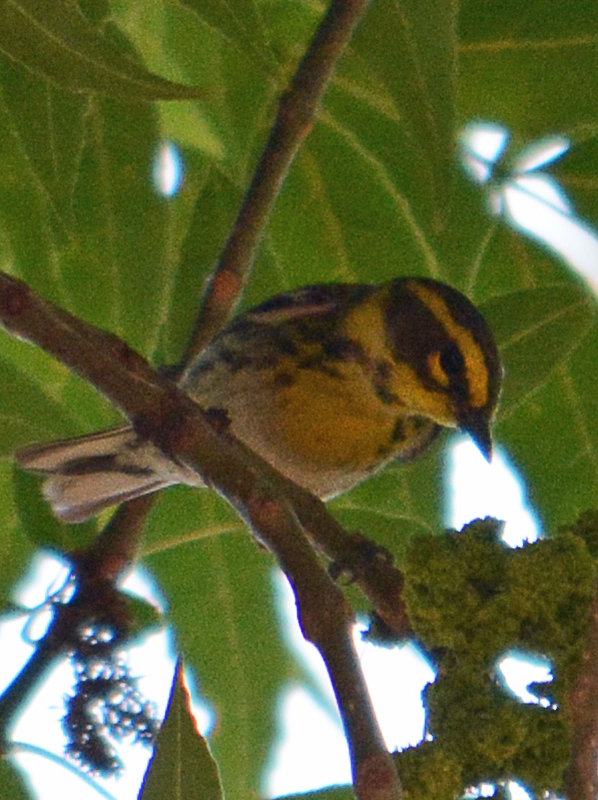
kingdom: Animalia
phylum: Chordata
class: Aves
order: Passeriformes
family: Parulidae
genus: Setophaga
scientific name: Setophaga townsendi
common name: Townsend's warbler
